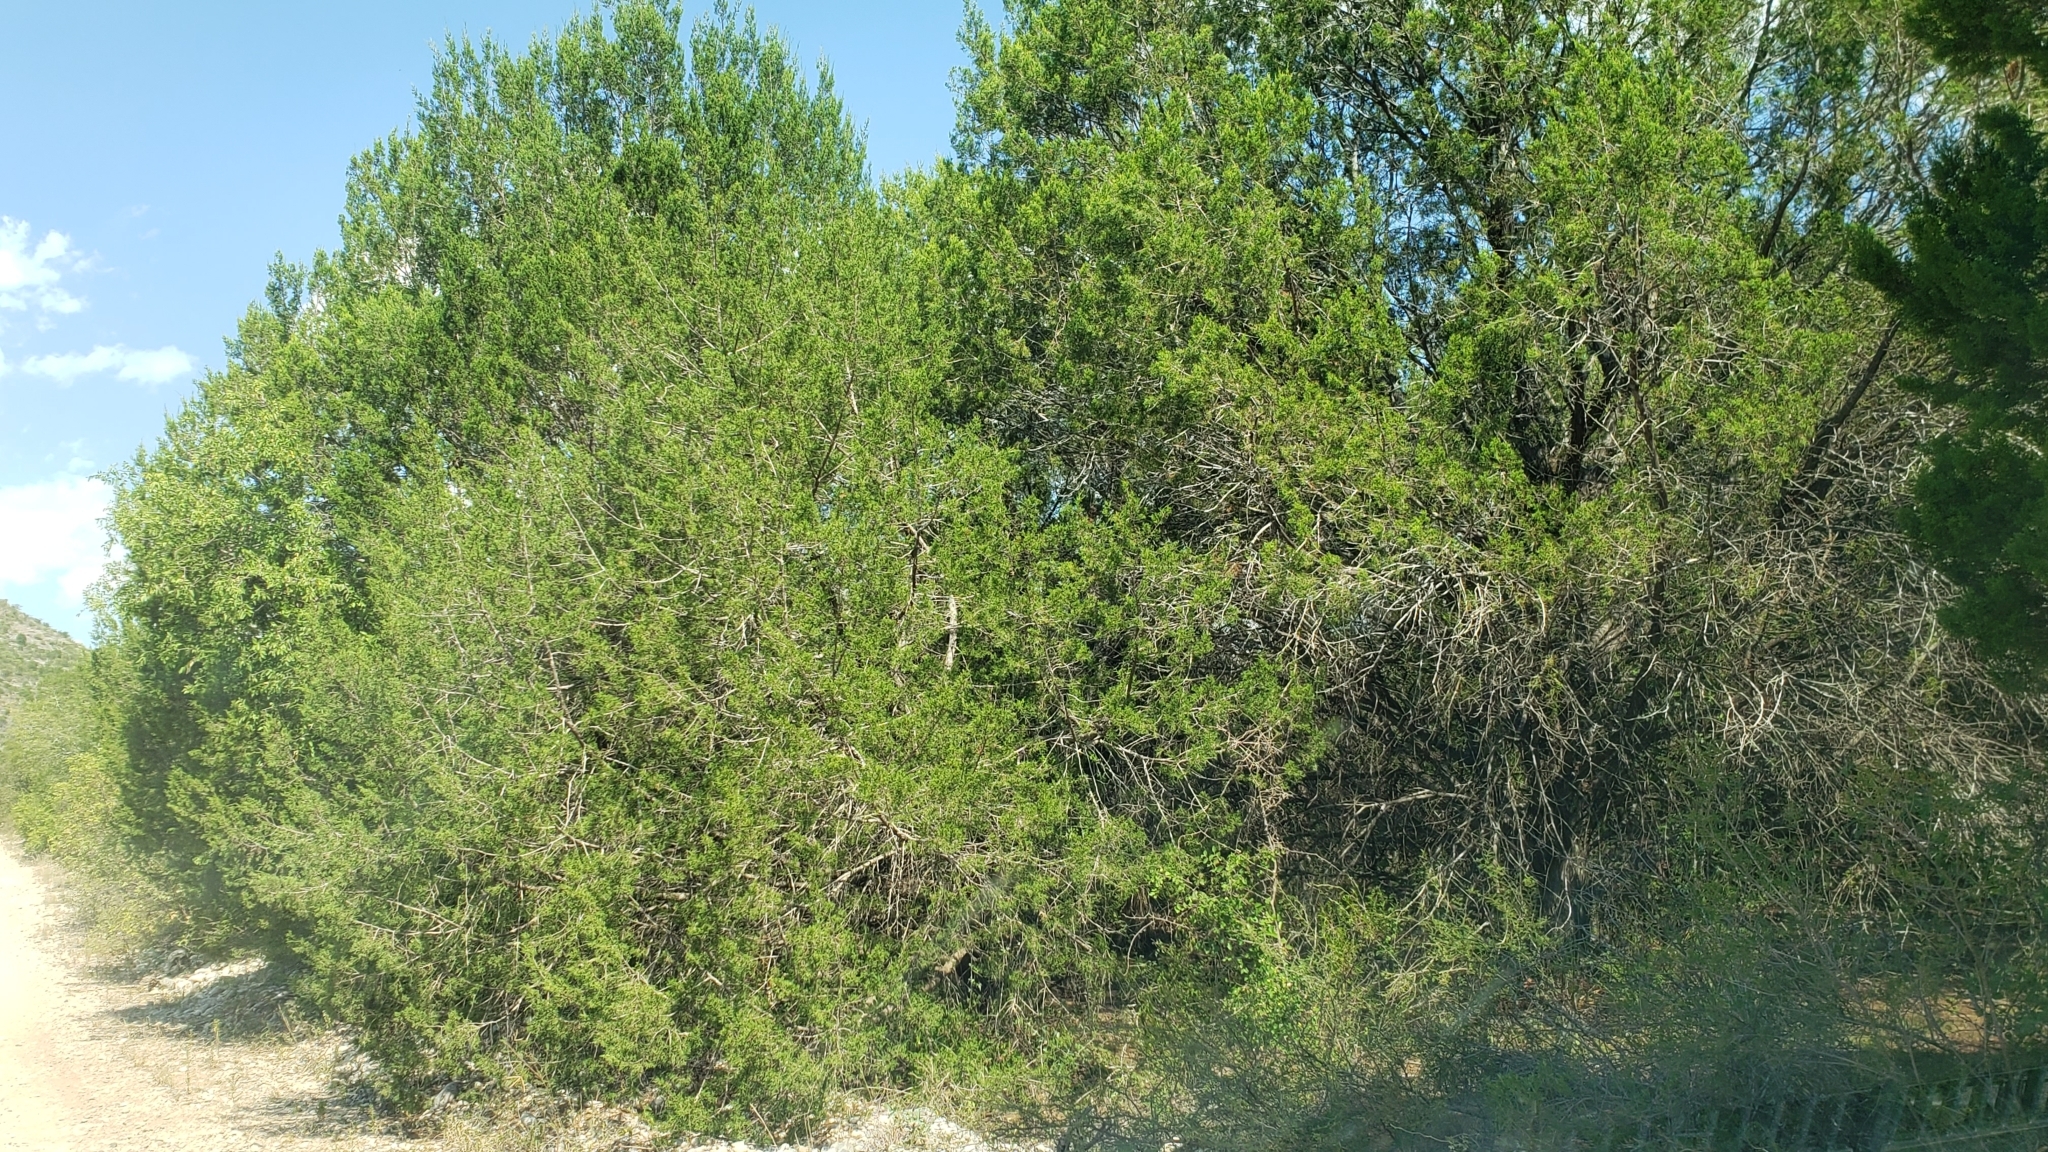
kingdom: Plantae
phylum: Tracheophyta
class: Pinopsida
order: Pinales
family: Cupressaceae
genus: Juniperus
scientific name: Juniperus ashei
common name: Mexican juniper
